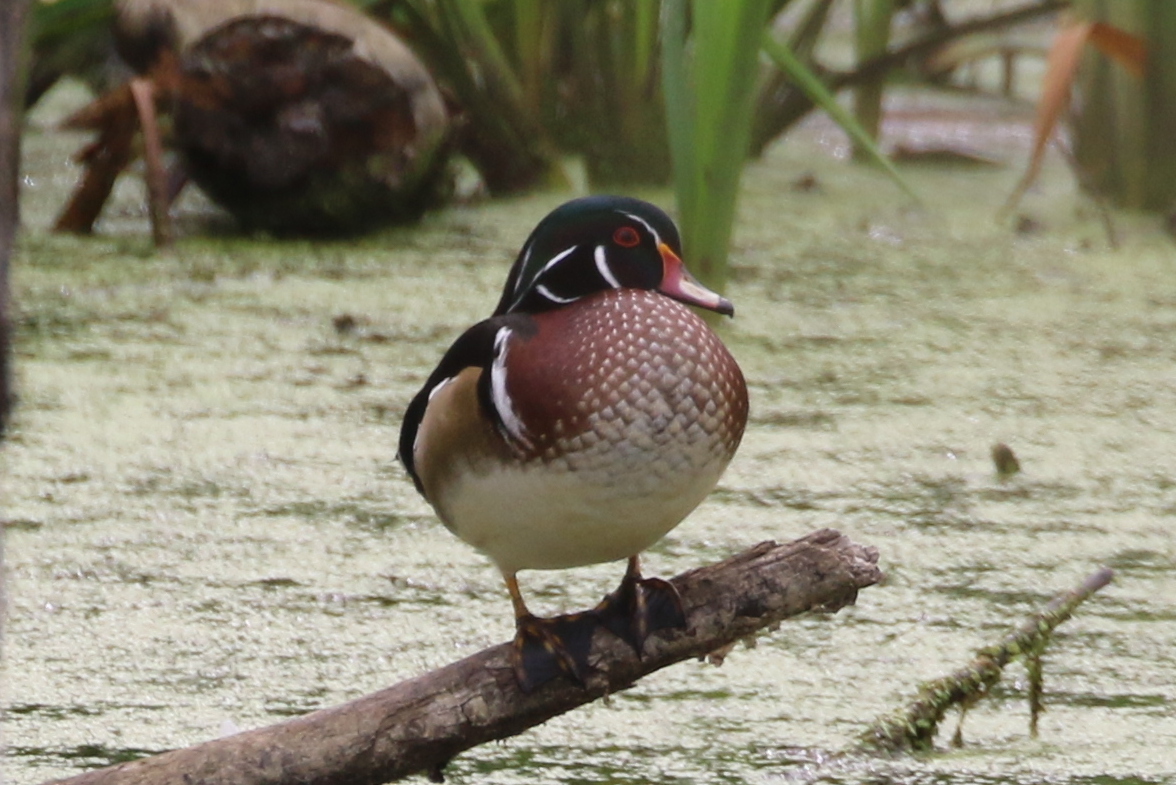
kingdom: Animalia
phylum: Chordata
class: Aves
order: Anseriformes
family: Anatidae
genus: Aix
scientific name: Aix sponsa
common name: Wood duck
